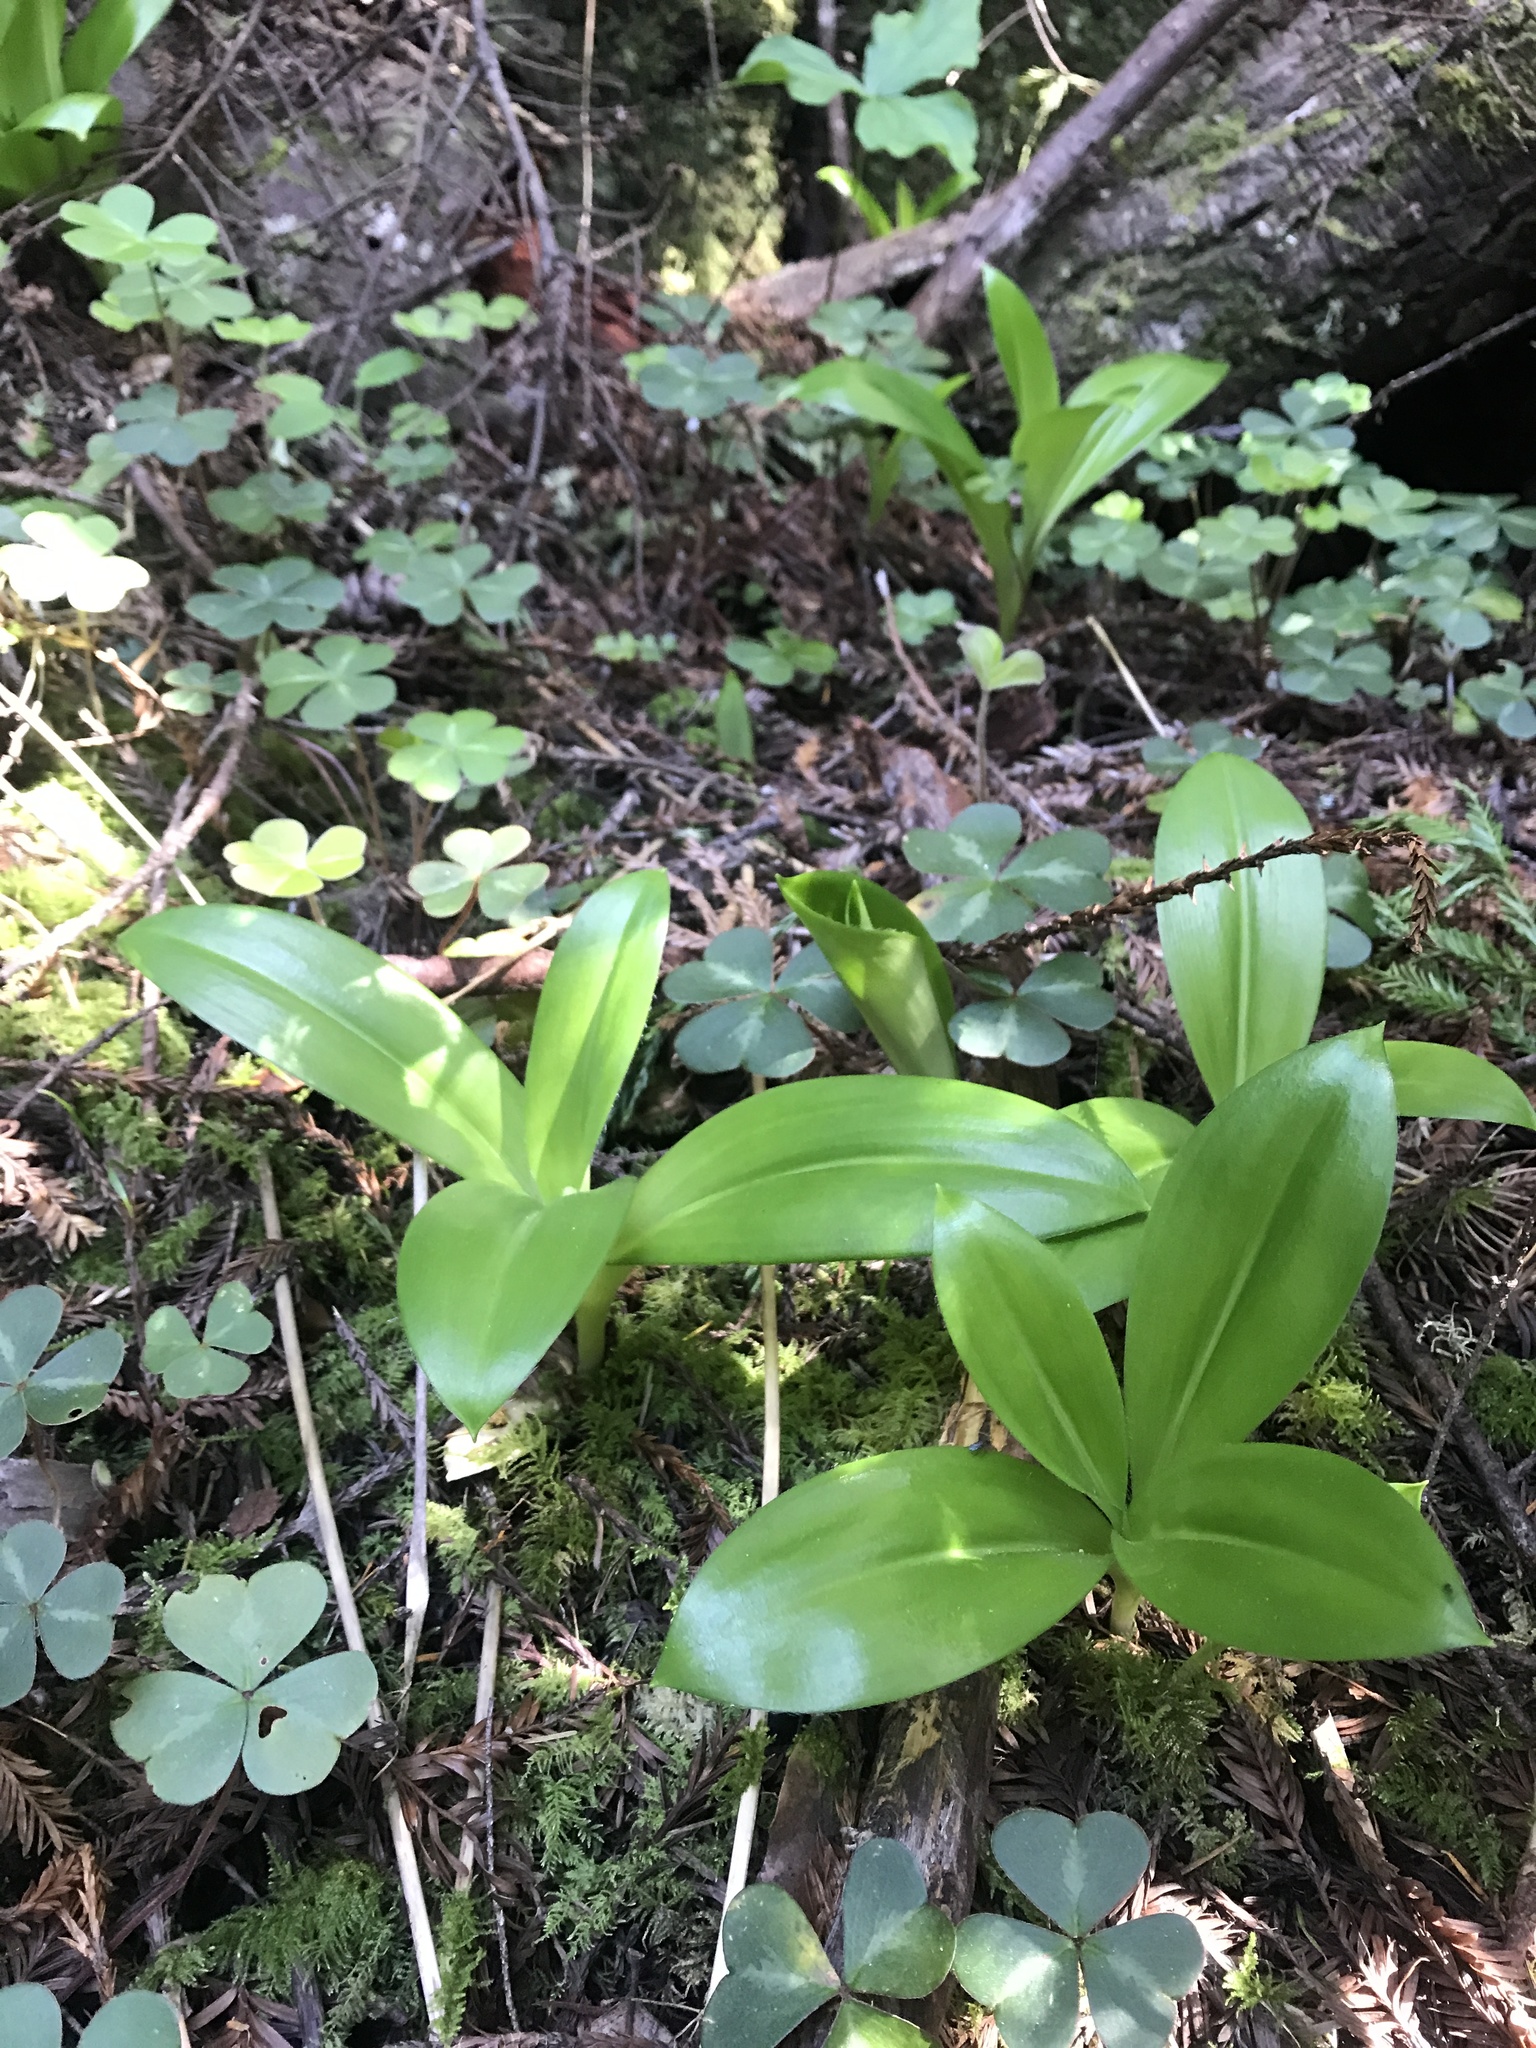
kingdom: Plantae
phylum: Tracheophyta
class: Liliopsida
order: Liliales
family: Liliaceae
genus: Clintonia
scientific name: Clintonia andrewsiana
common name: Red clintonia
